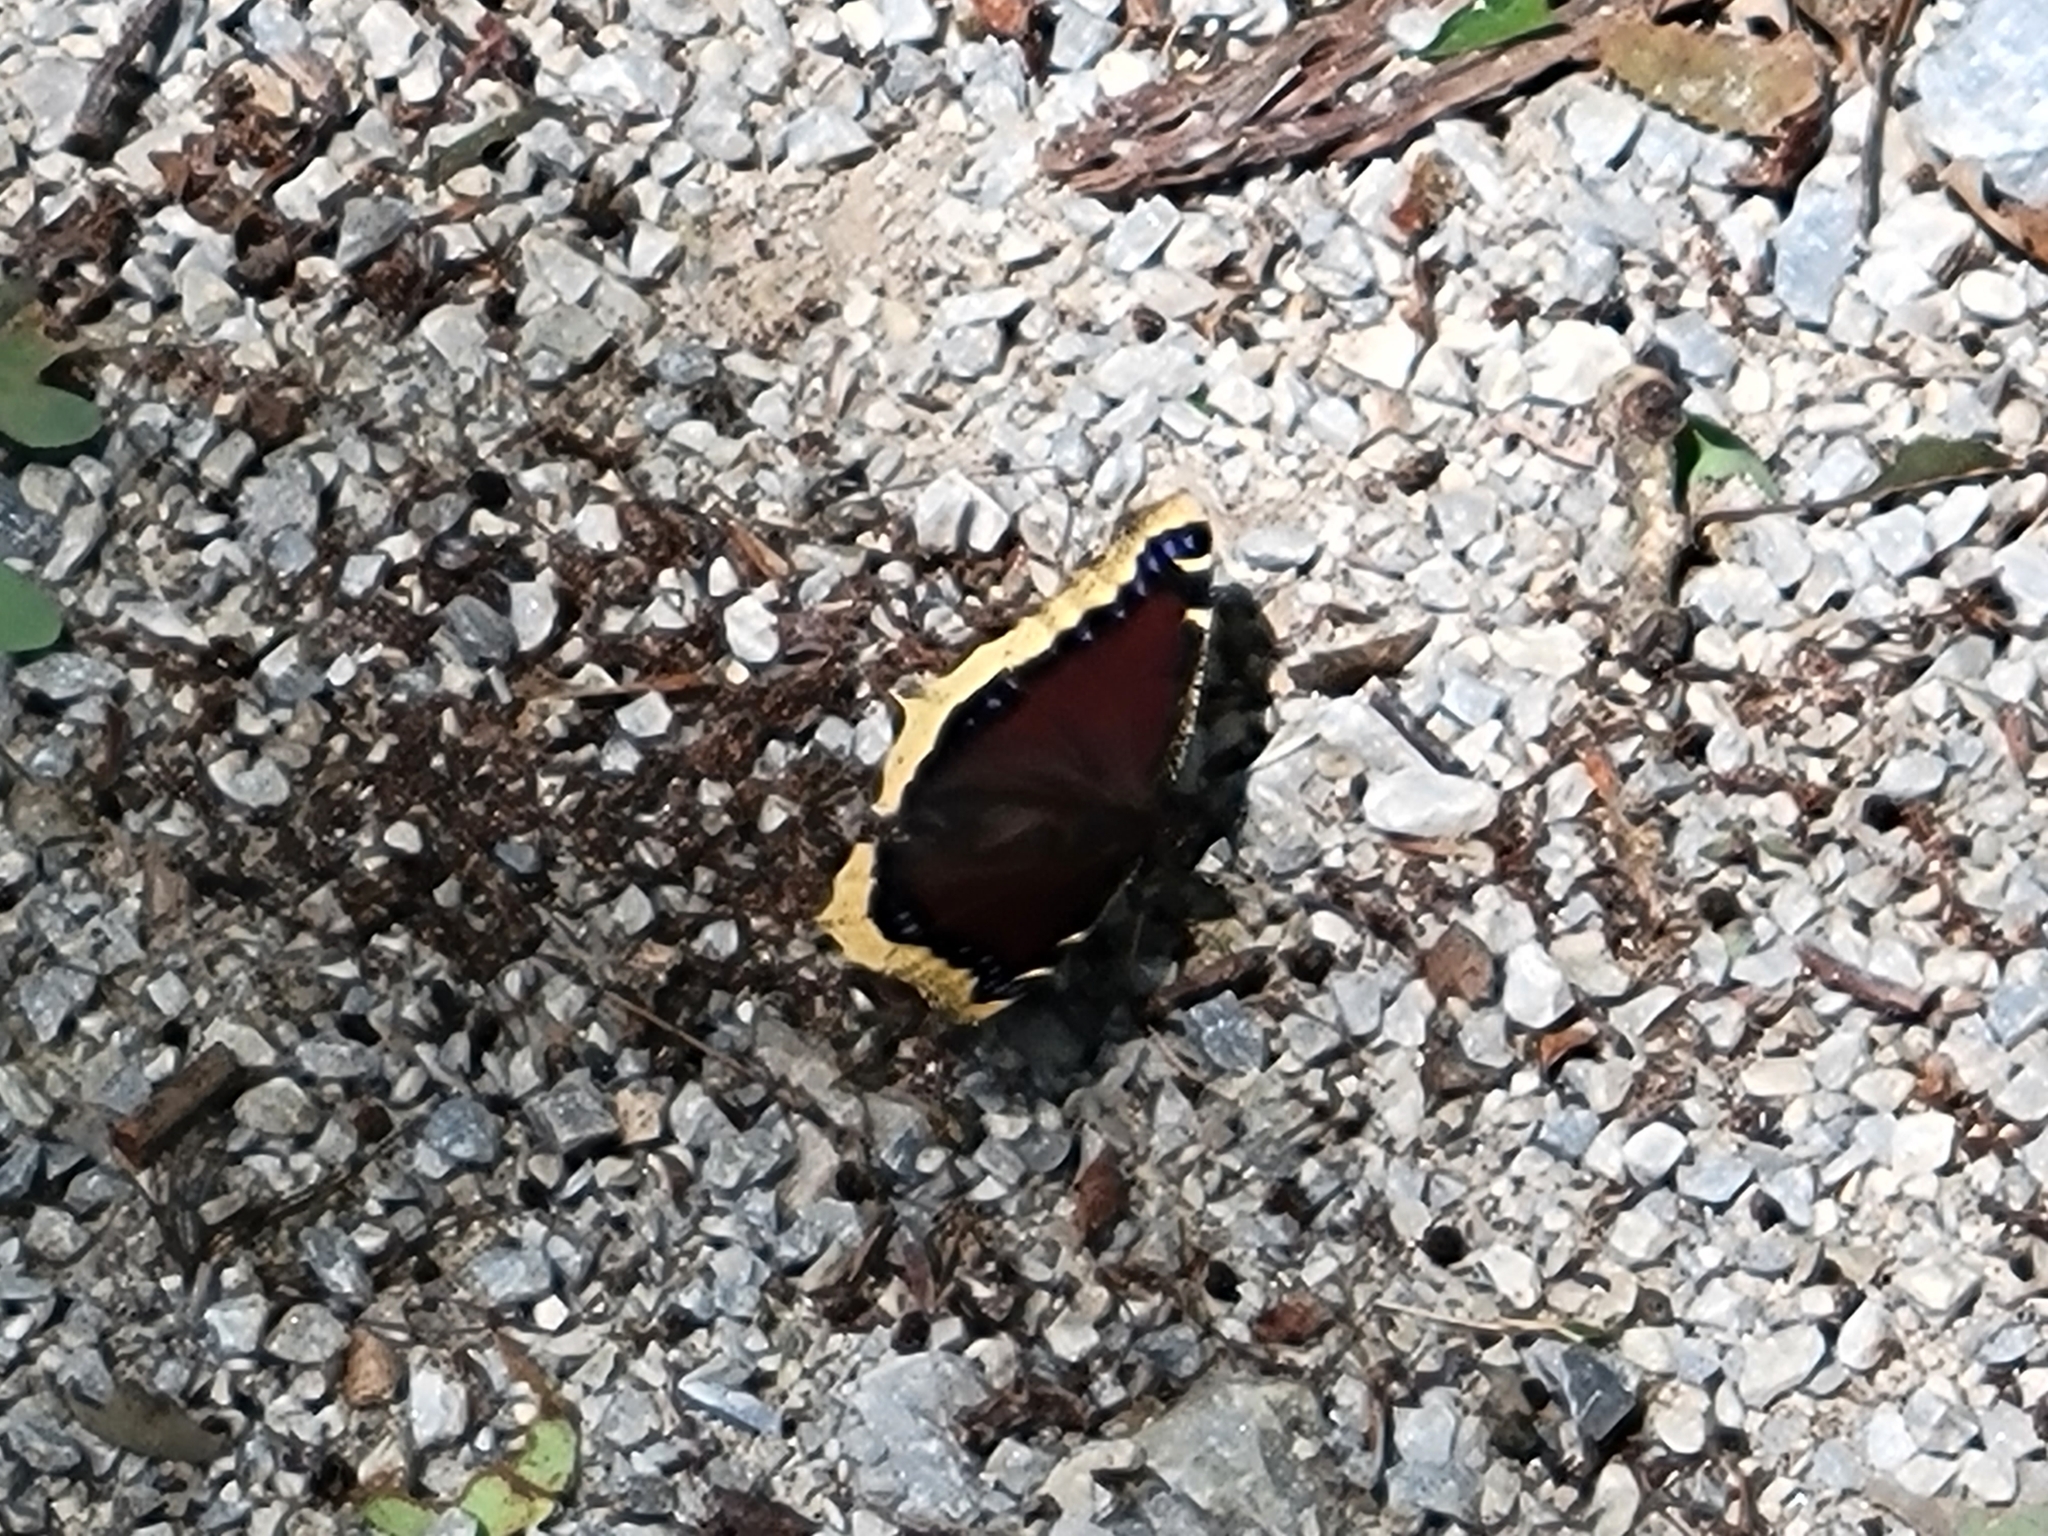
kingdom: Animalia
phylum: Arthropoda
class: Insecta
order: Lepidoptera
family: Nymphalidae
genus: Nymphalis
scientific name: Nymphalis antiopa
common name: Camberwell beauty
